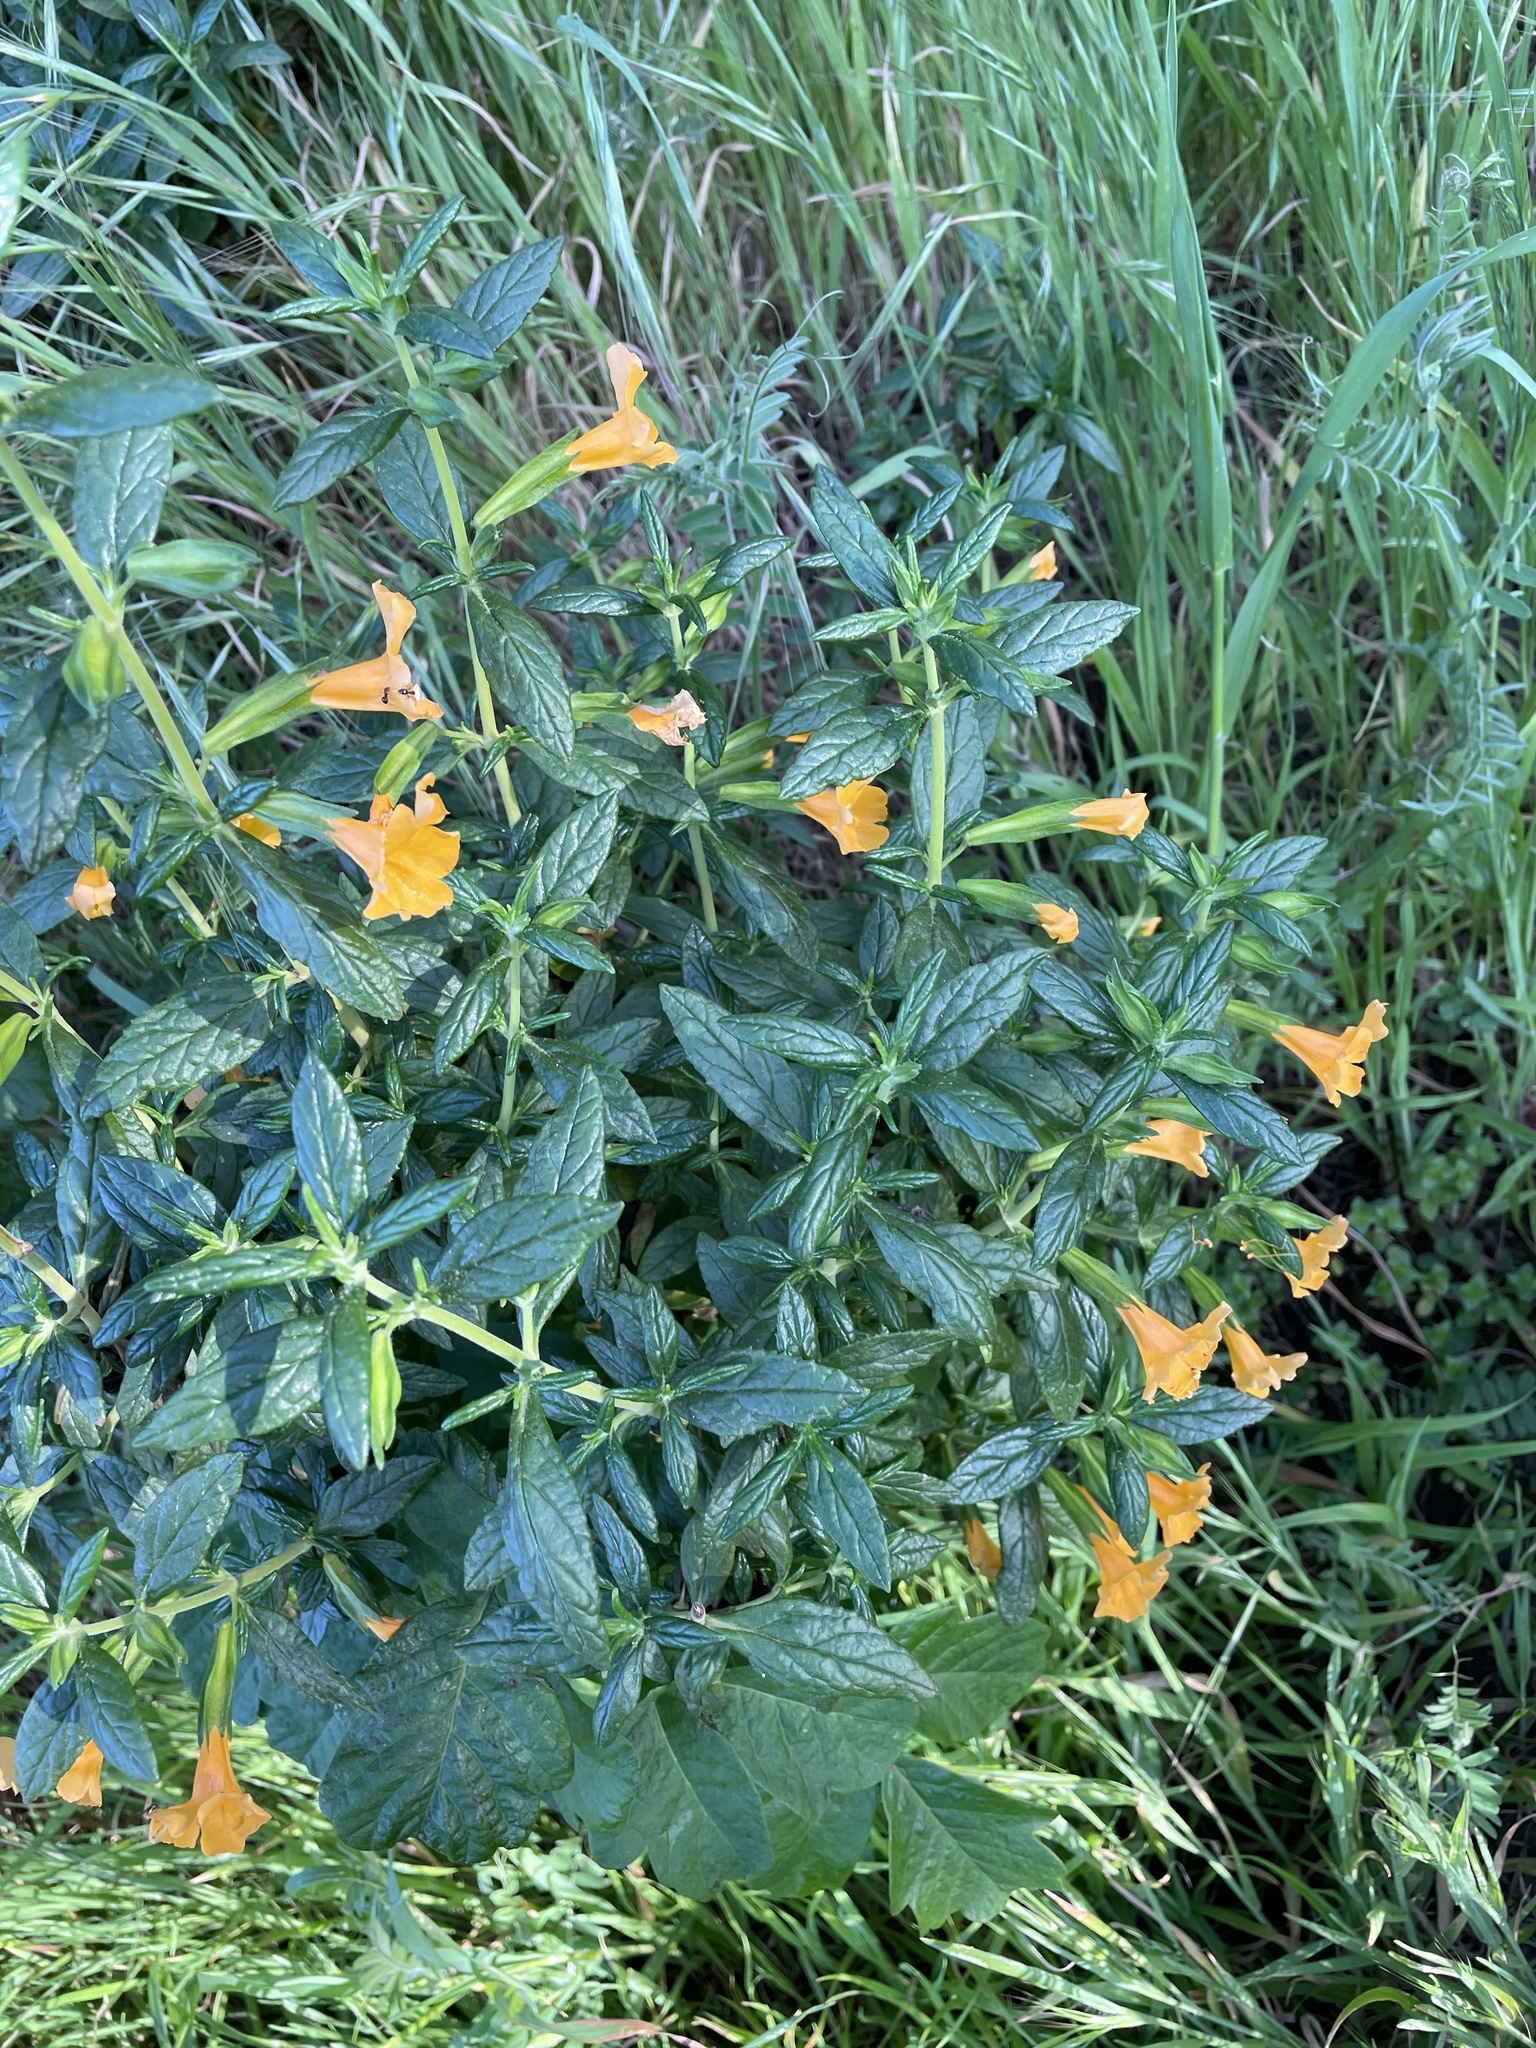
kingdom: Plantae
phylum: Tracheophyta
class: Magnoliopsida
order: Lamiales
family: Phrymaceae
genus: Diplacus
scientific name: Diplacus aurantiacus
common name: Bush monkey-flower
